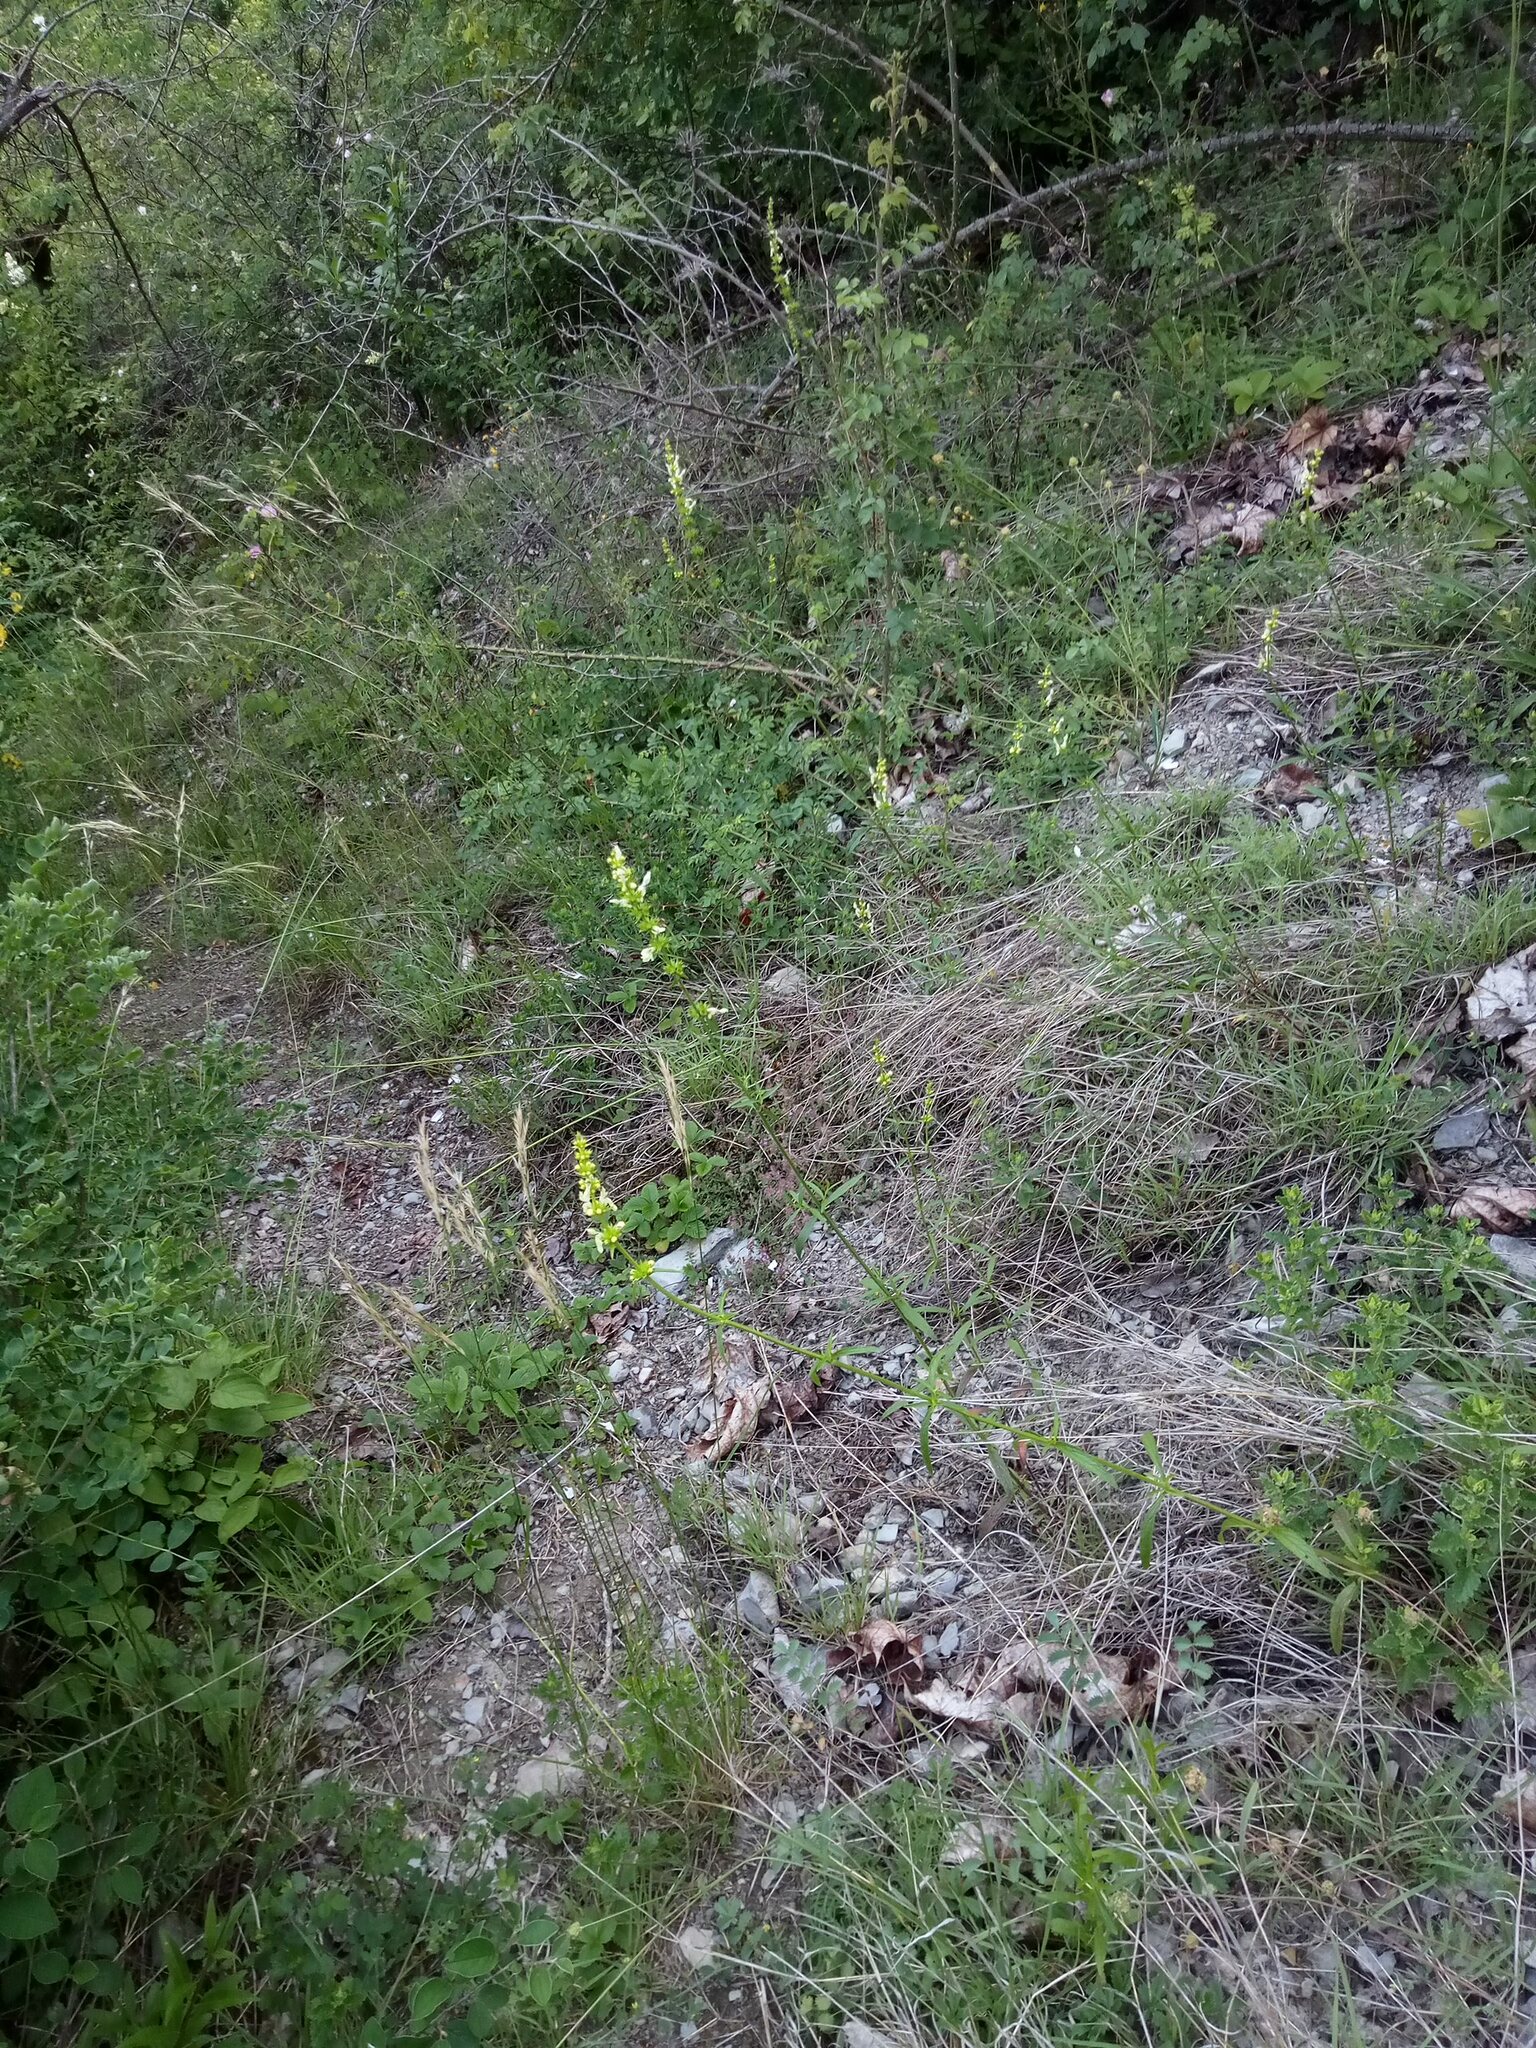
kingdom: Plantae
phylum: Tracheophyta
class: Magnoliopsida
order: Lamiales
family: Lamiaceae
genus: Stachys
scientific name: Stachys recta
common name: Perennial yellow-woundwort
